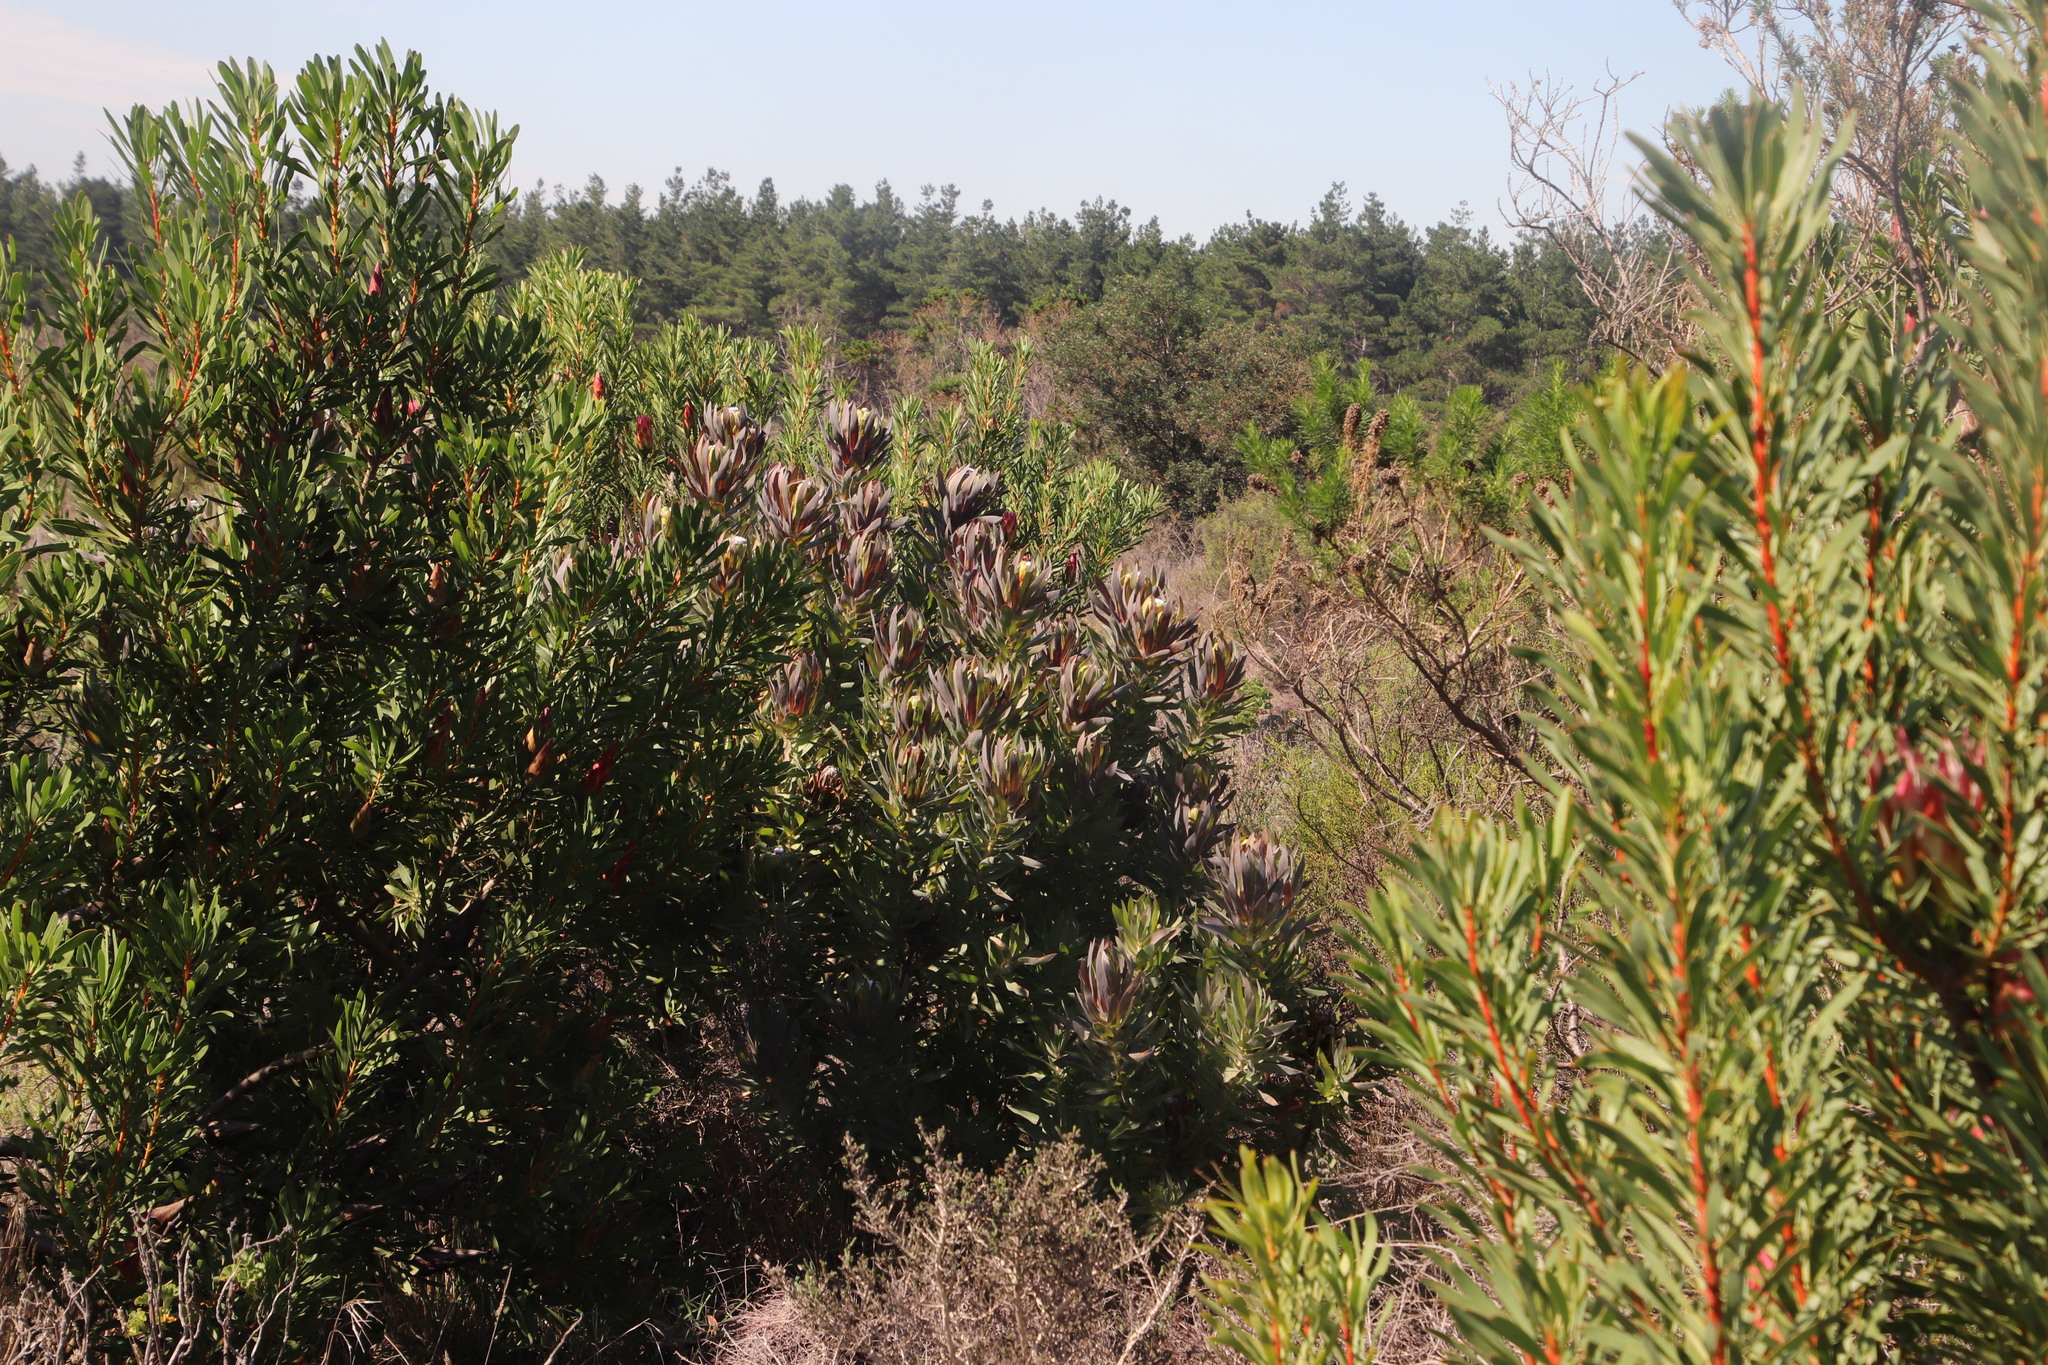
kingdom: Plantae
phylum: Tracheophyta
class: Magnoliopsida
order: Proteales
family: Proteaceae
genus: Protea
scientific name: Protea coronata
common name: Green sugarbush
